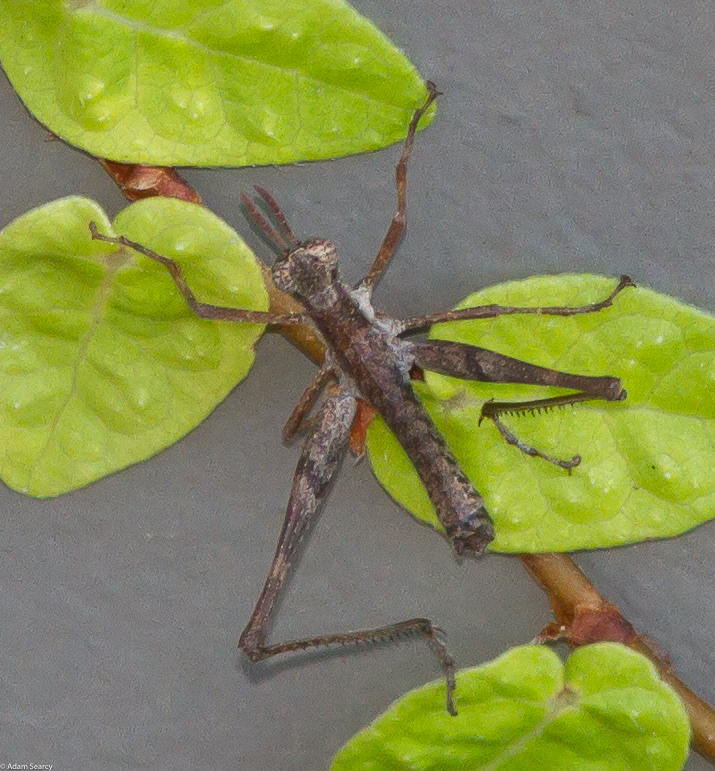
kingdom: Animalia
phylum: Arthropoda
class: Insecta
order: Orthoptera
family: Eumastacidae
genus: Morsea
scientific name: Morsea californica
